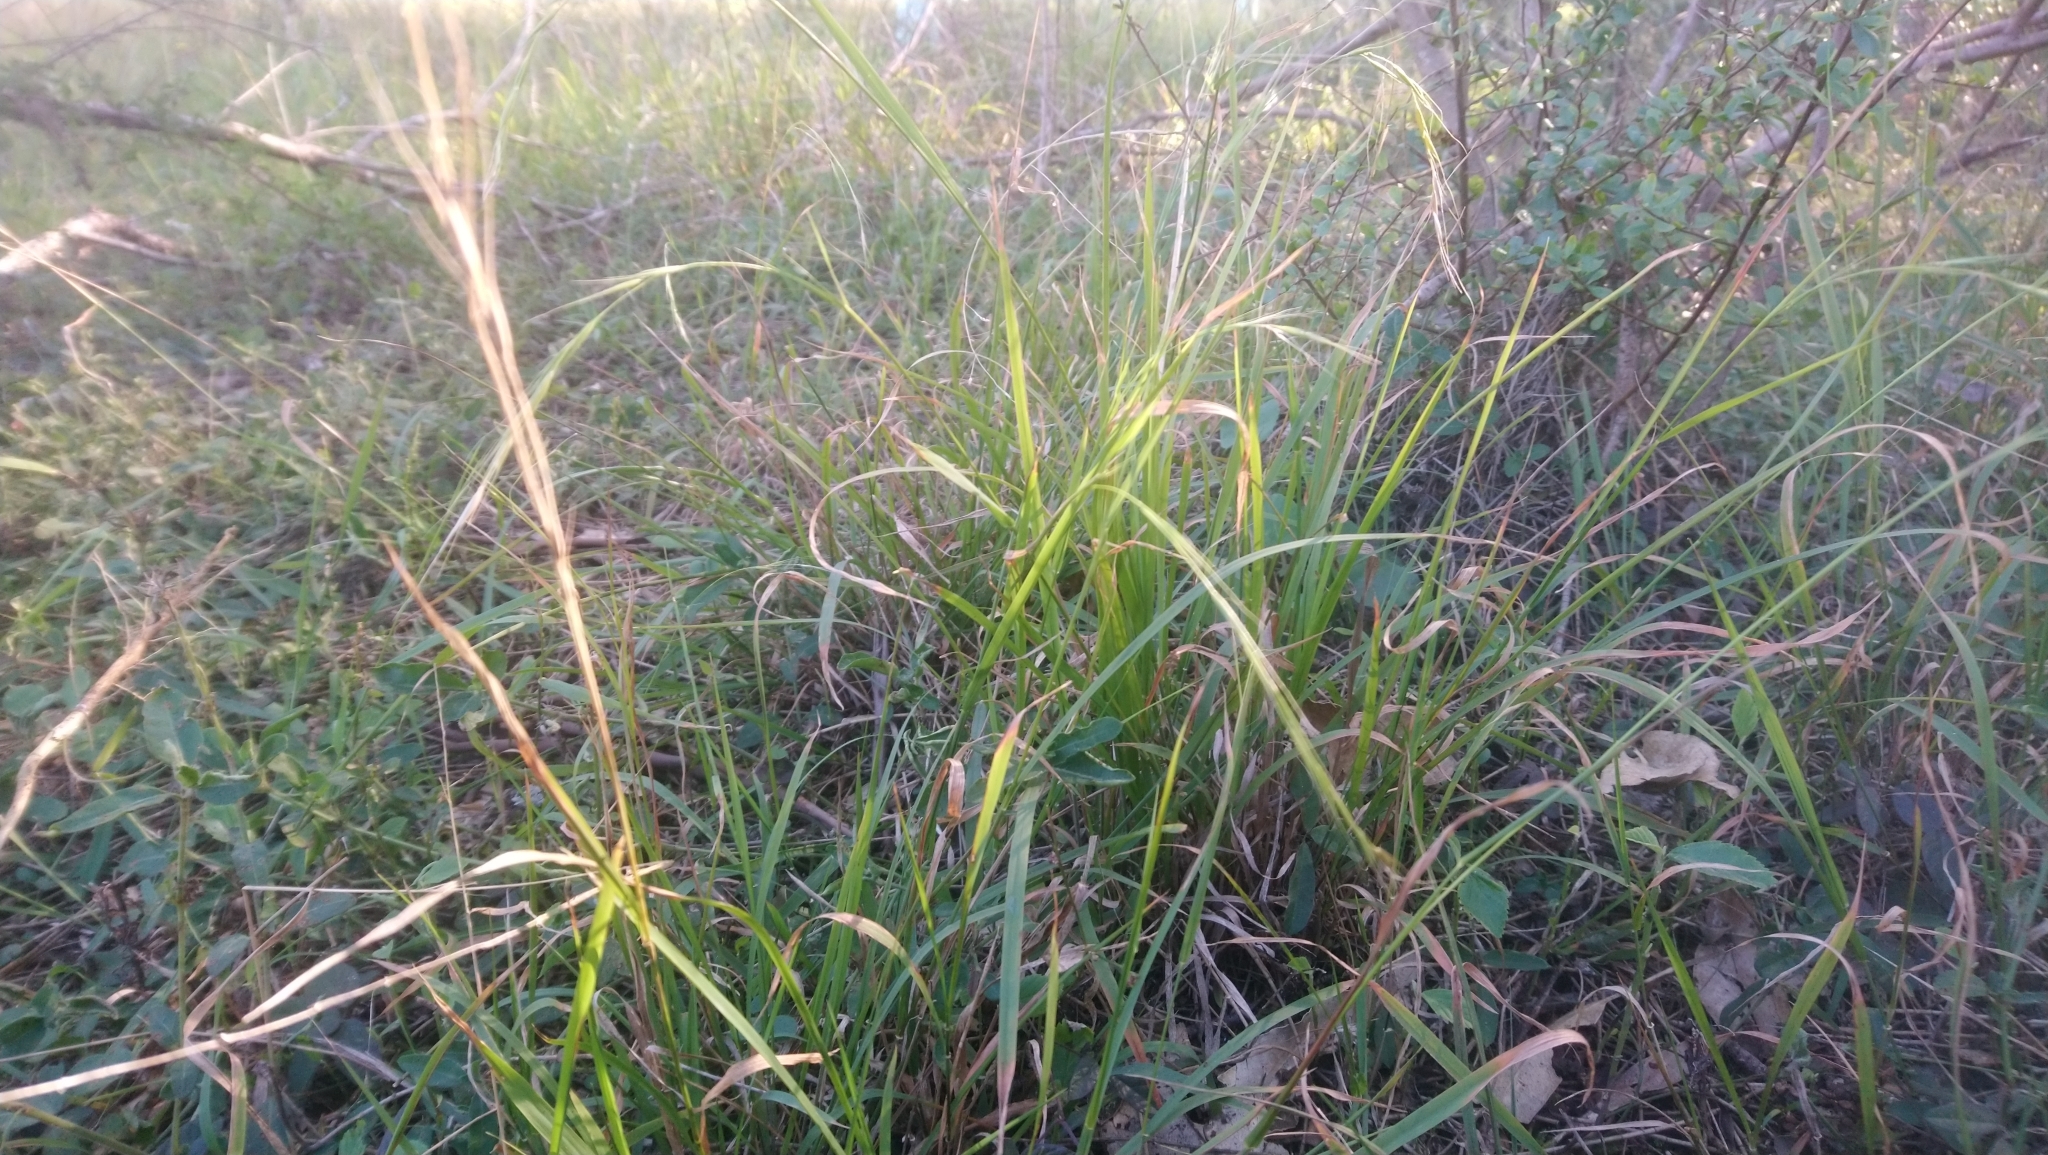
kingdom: Plantae
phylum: Tracheophyta
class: Liliopsida
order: Poales
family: Poaceae
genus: Microlaena
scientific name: Microlaena stipoides
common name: Meadow ricegrass
